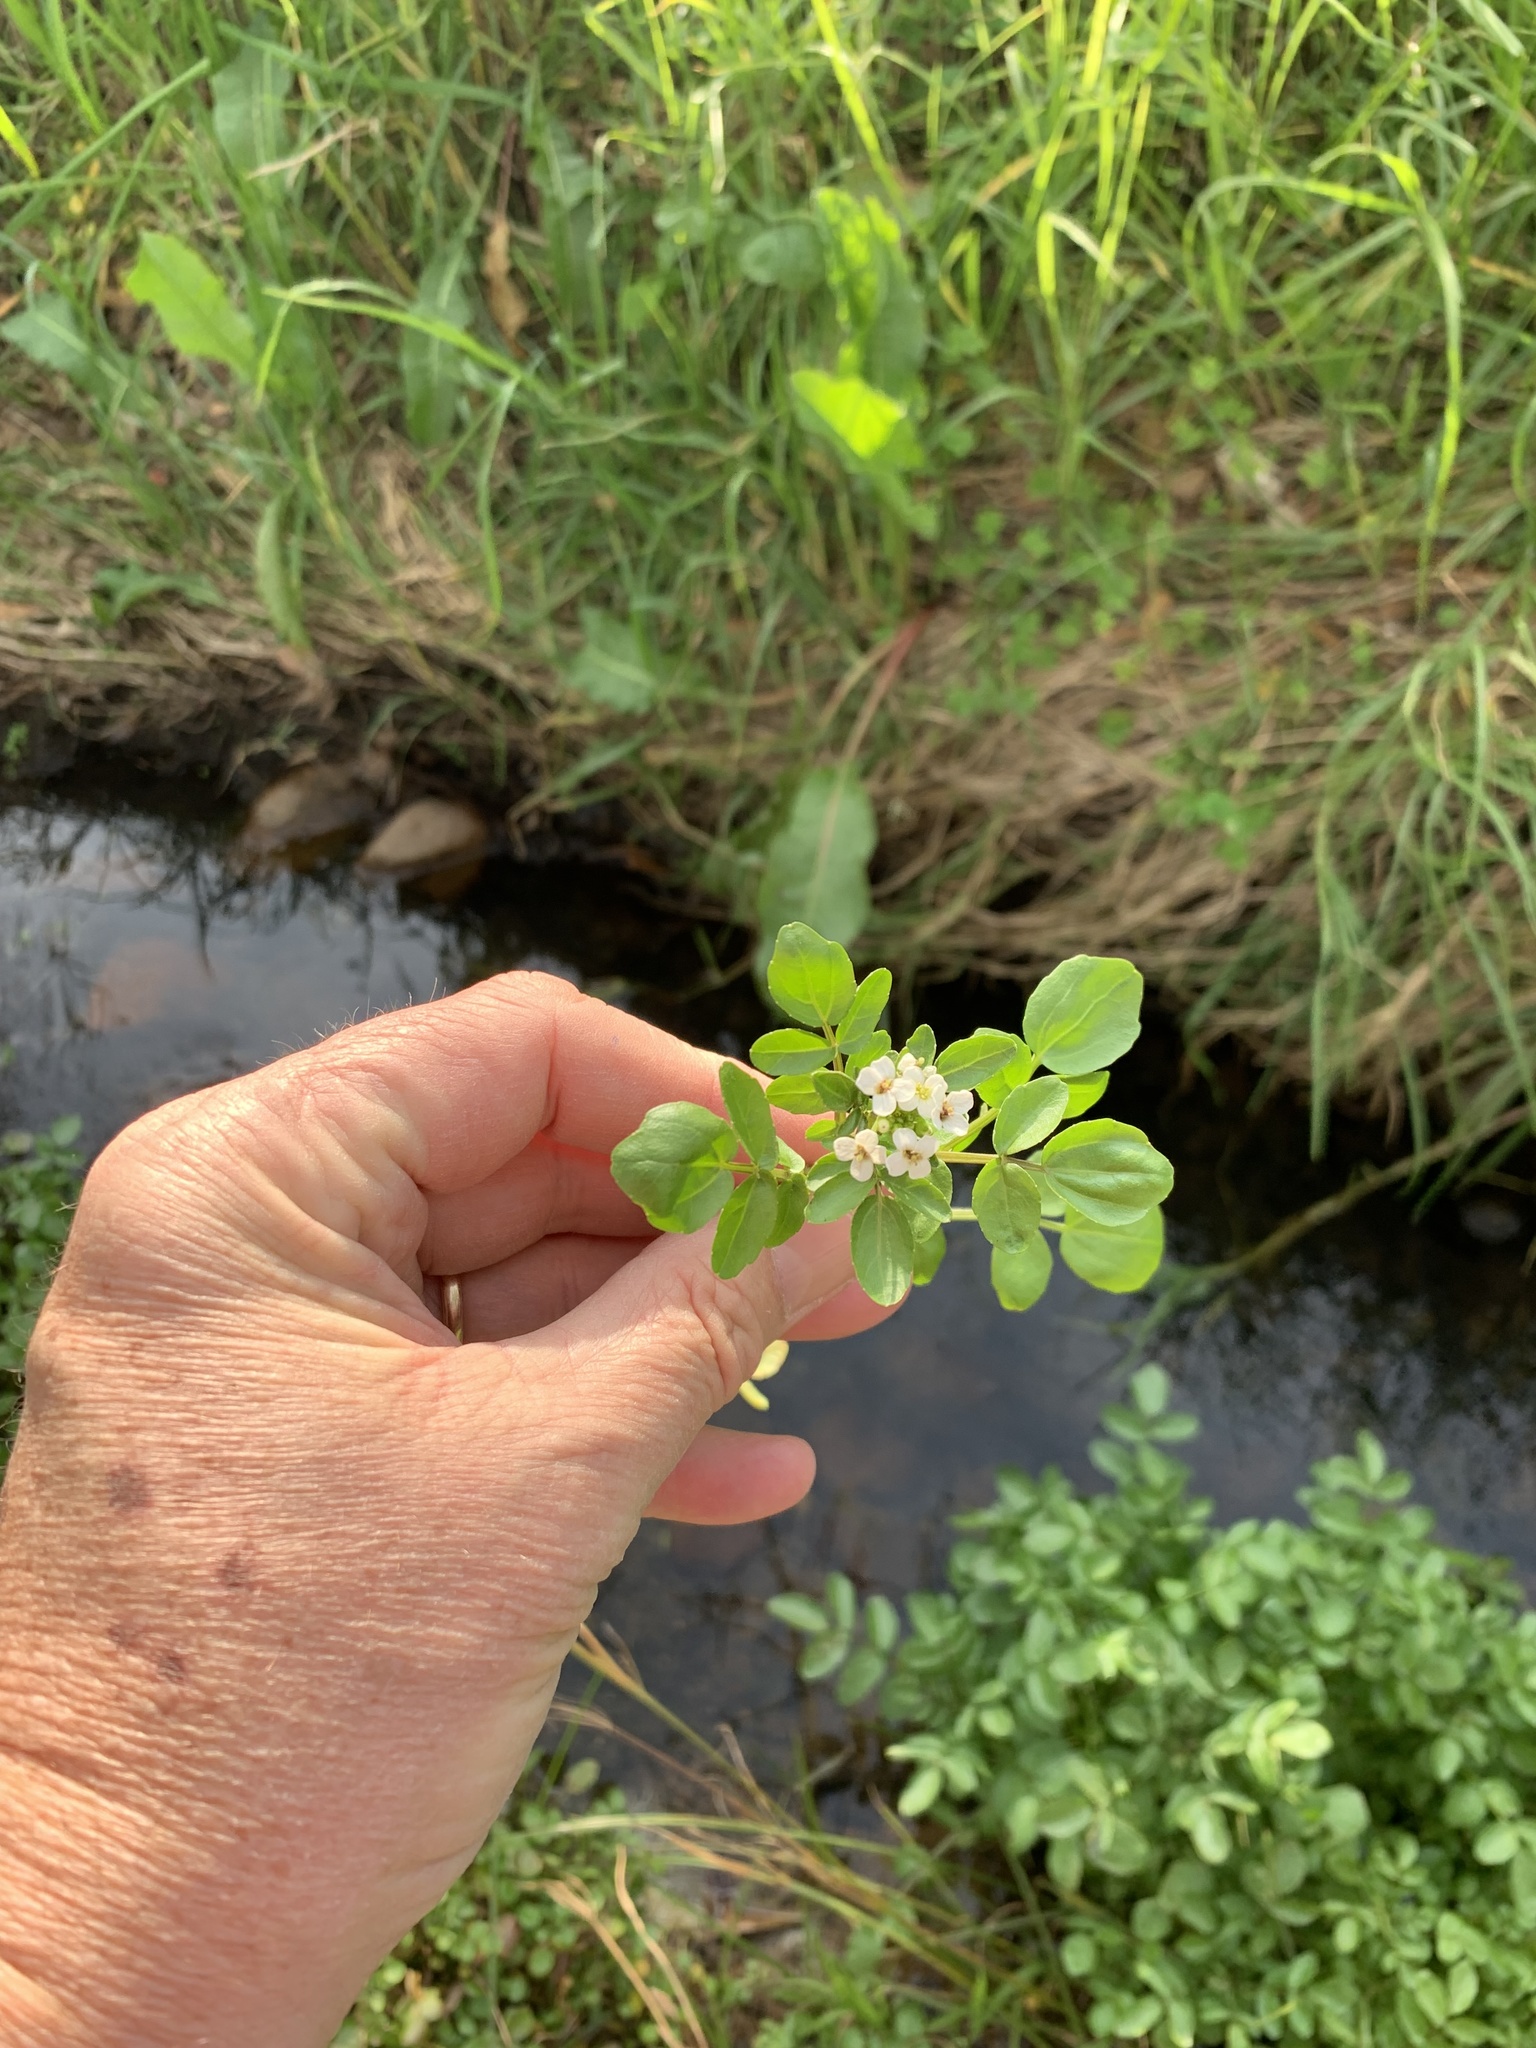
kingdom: Plantae
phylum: Tracheophyta
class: Magnoliopsida
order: Brassicales
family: Brassicaceae
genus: Nasturtium
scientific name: Nasturtium officinale
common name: Watercress
